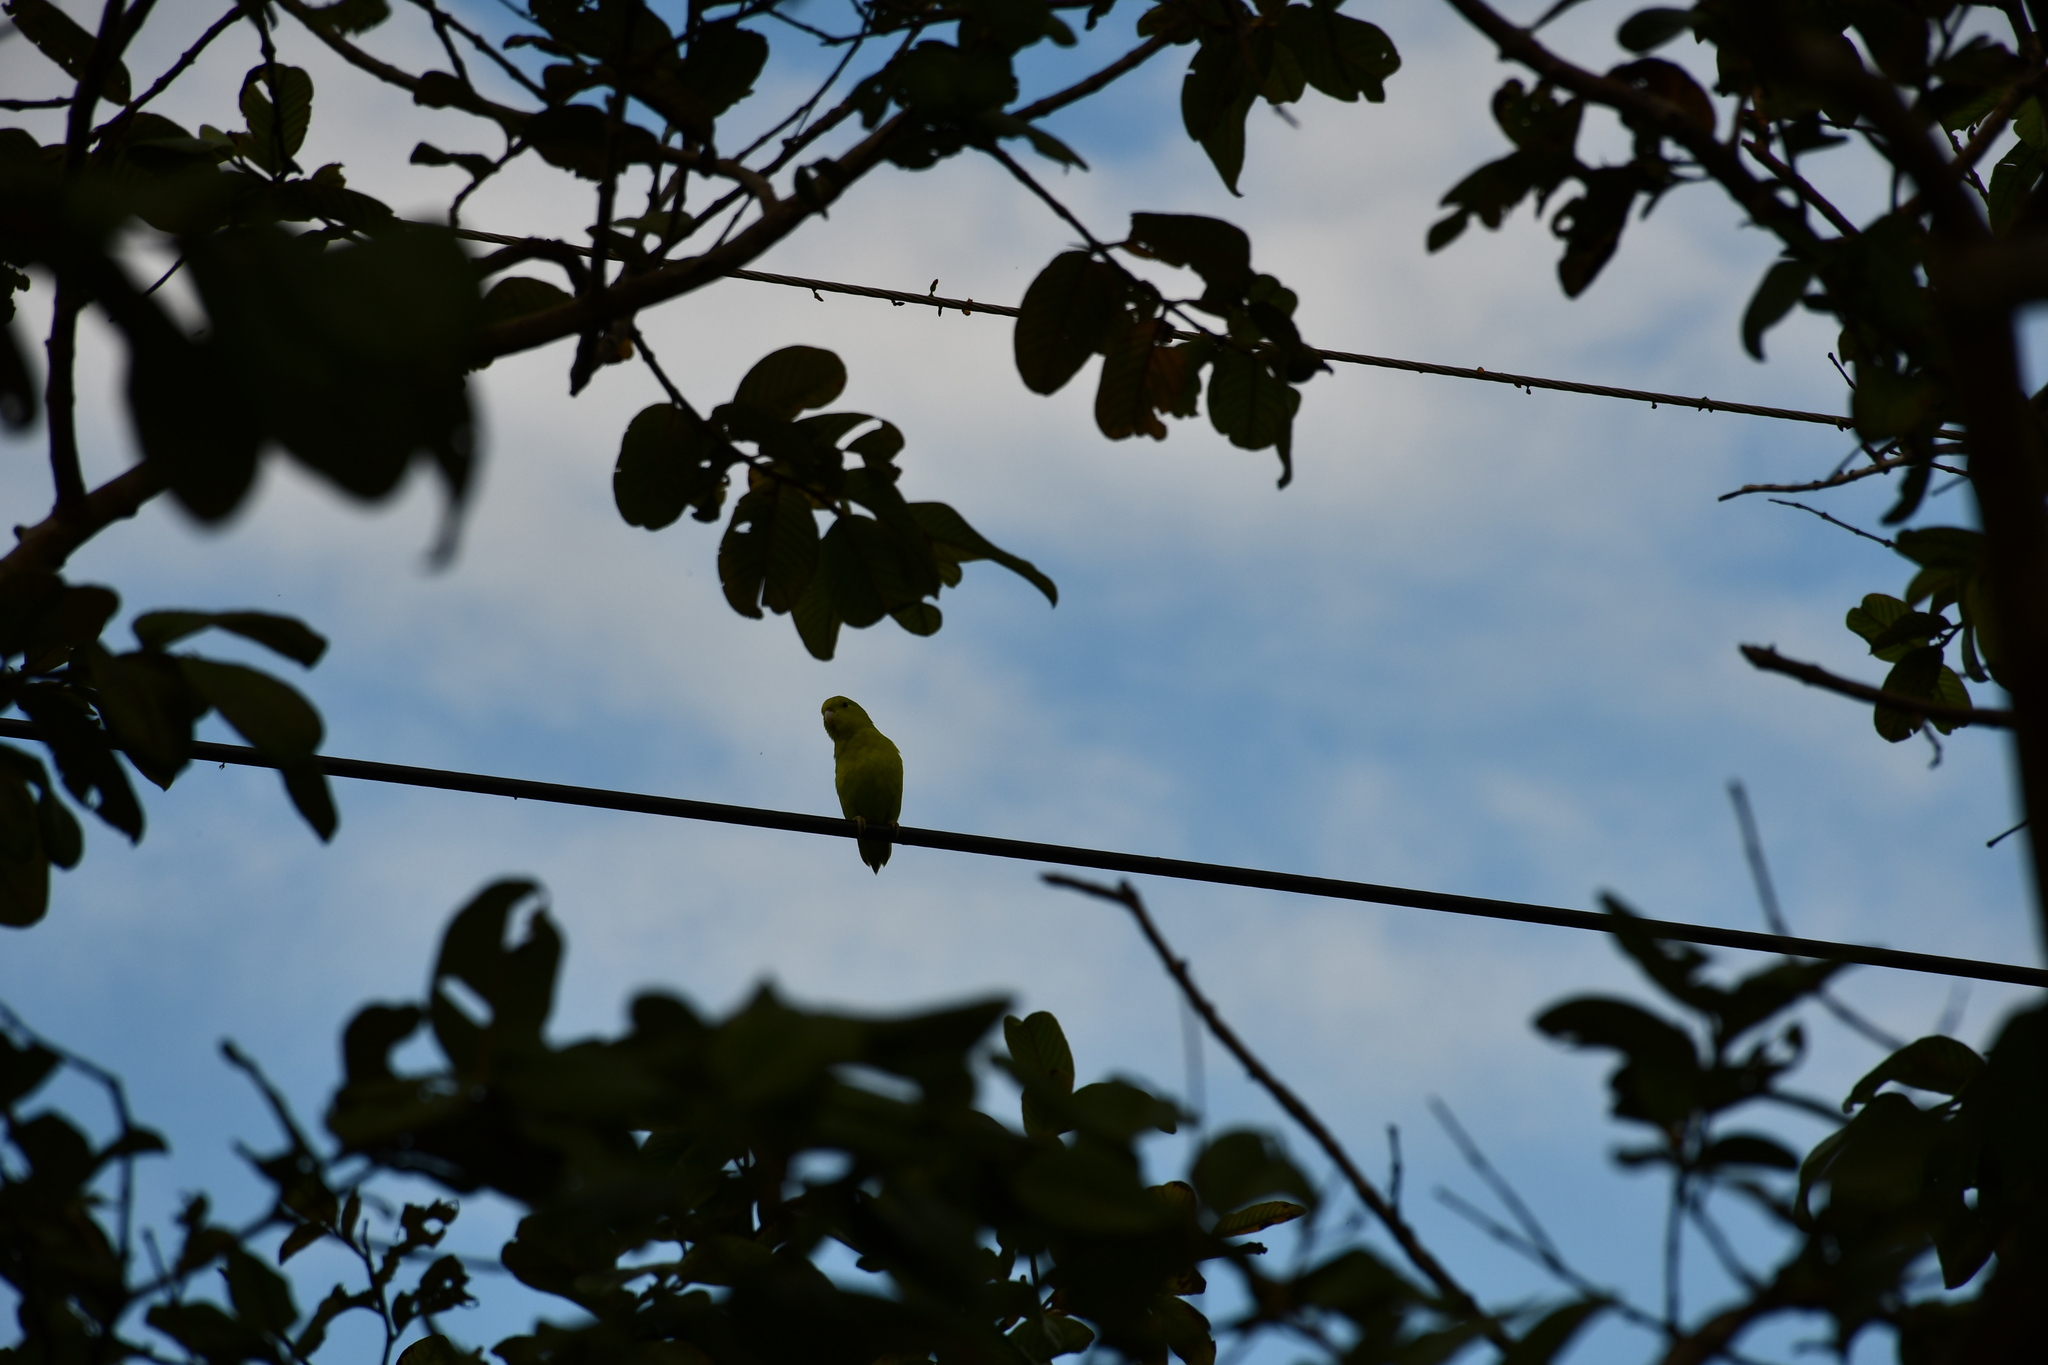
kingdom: Animalia
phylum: Chordata
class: Aves
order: Psittaciformes
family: Psittacidae
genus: Forpus
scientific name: Forpus xanthopterygius
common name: Blue-winged parrotlet
